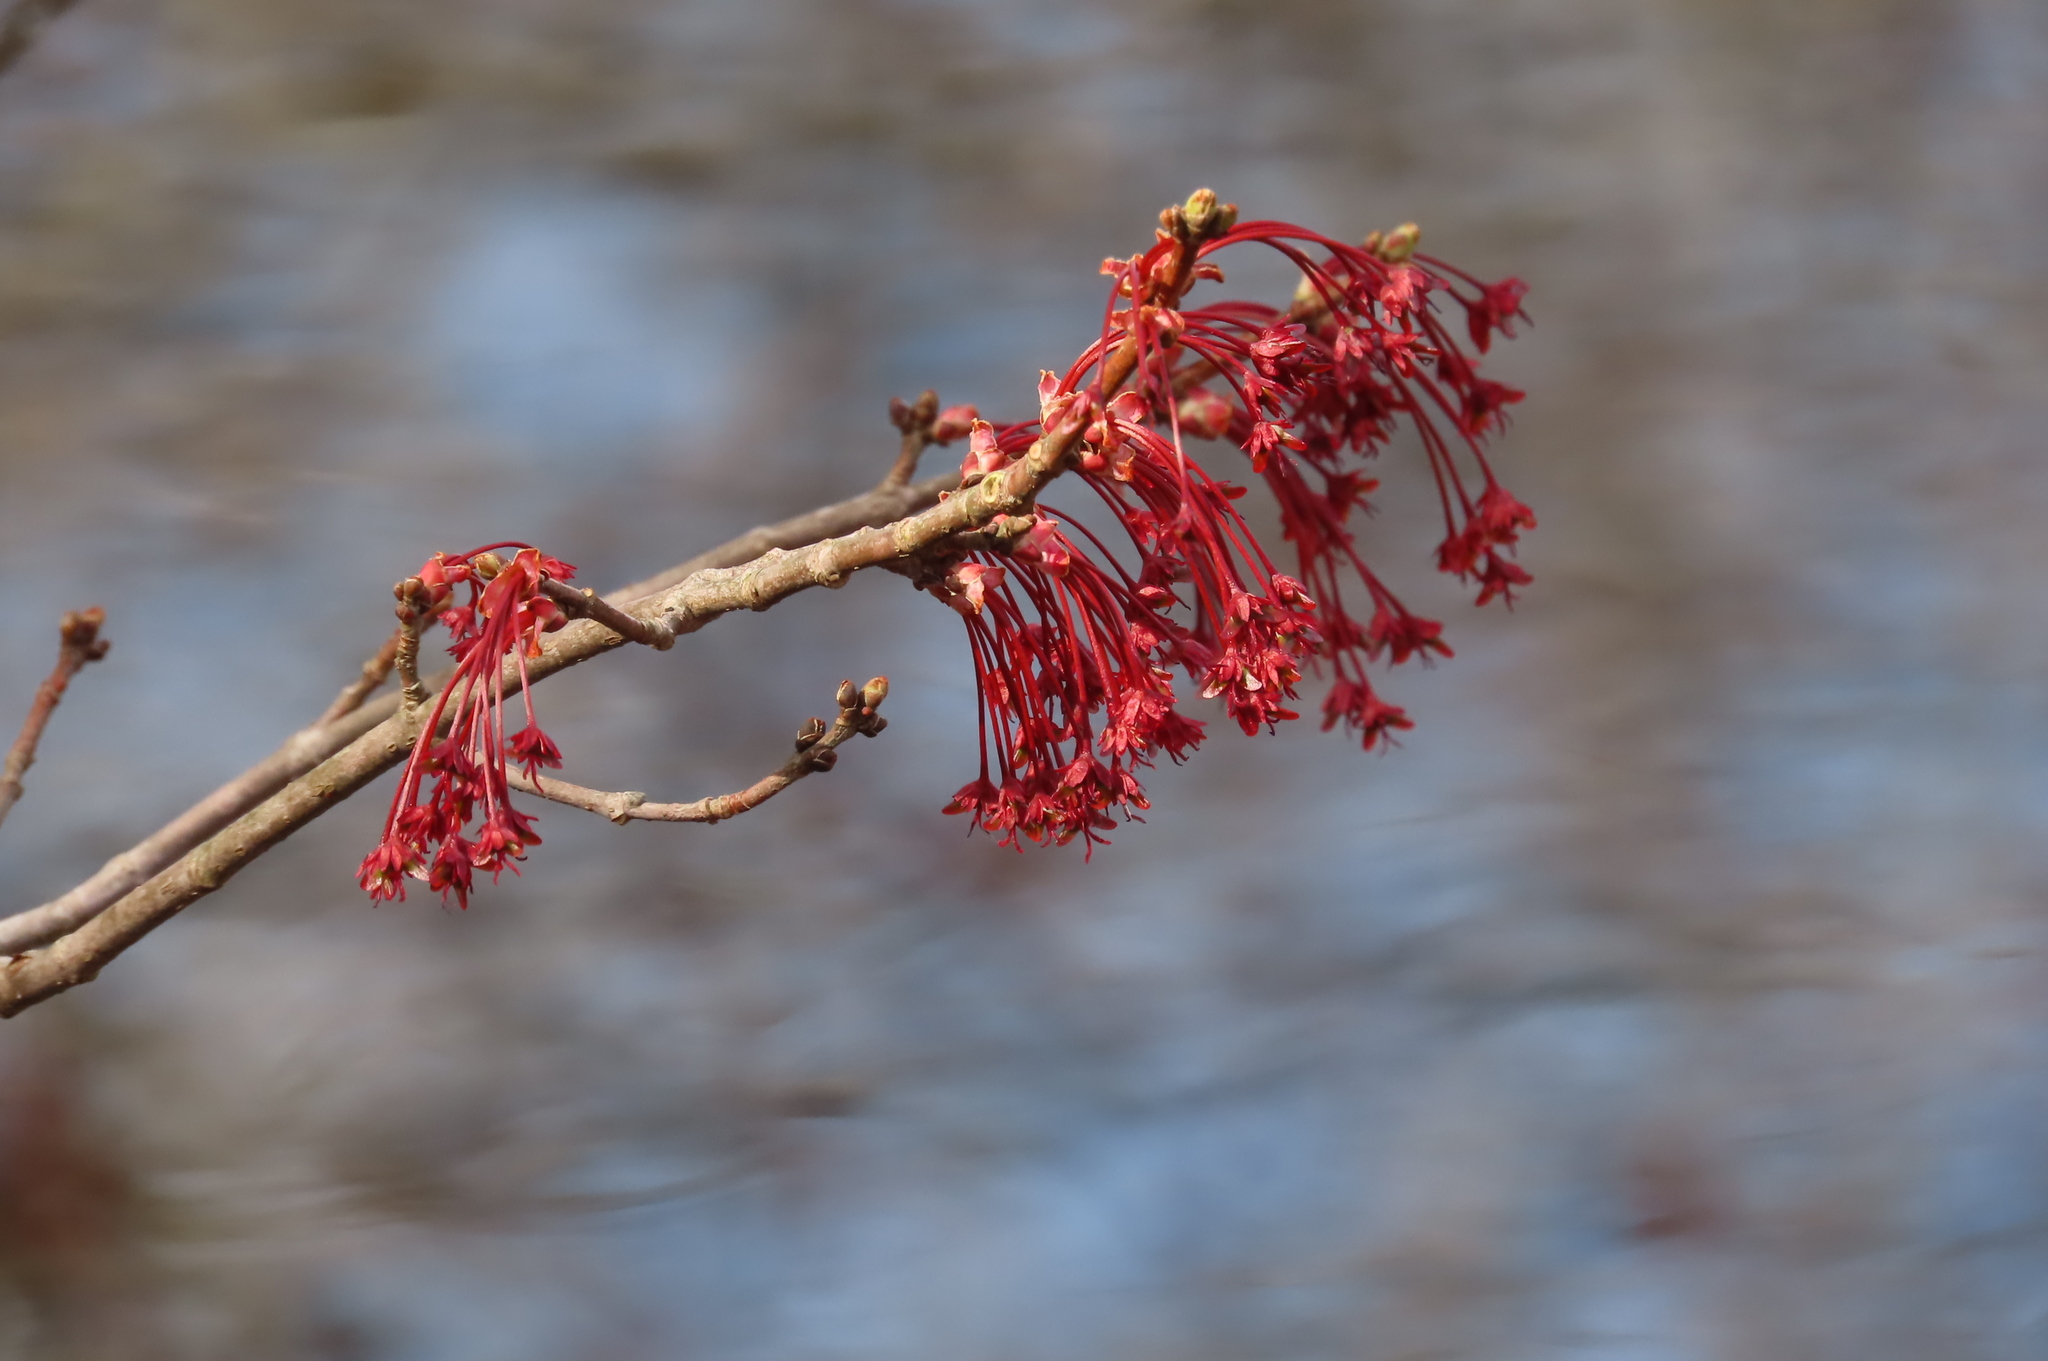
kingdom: Plantae
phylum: Tracheophyta
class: Magnoliopsida
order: Sapindales
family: Sapindaceae
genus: Acer
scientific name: Acer rubrum
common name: Red maple
